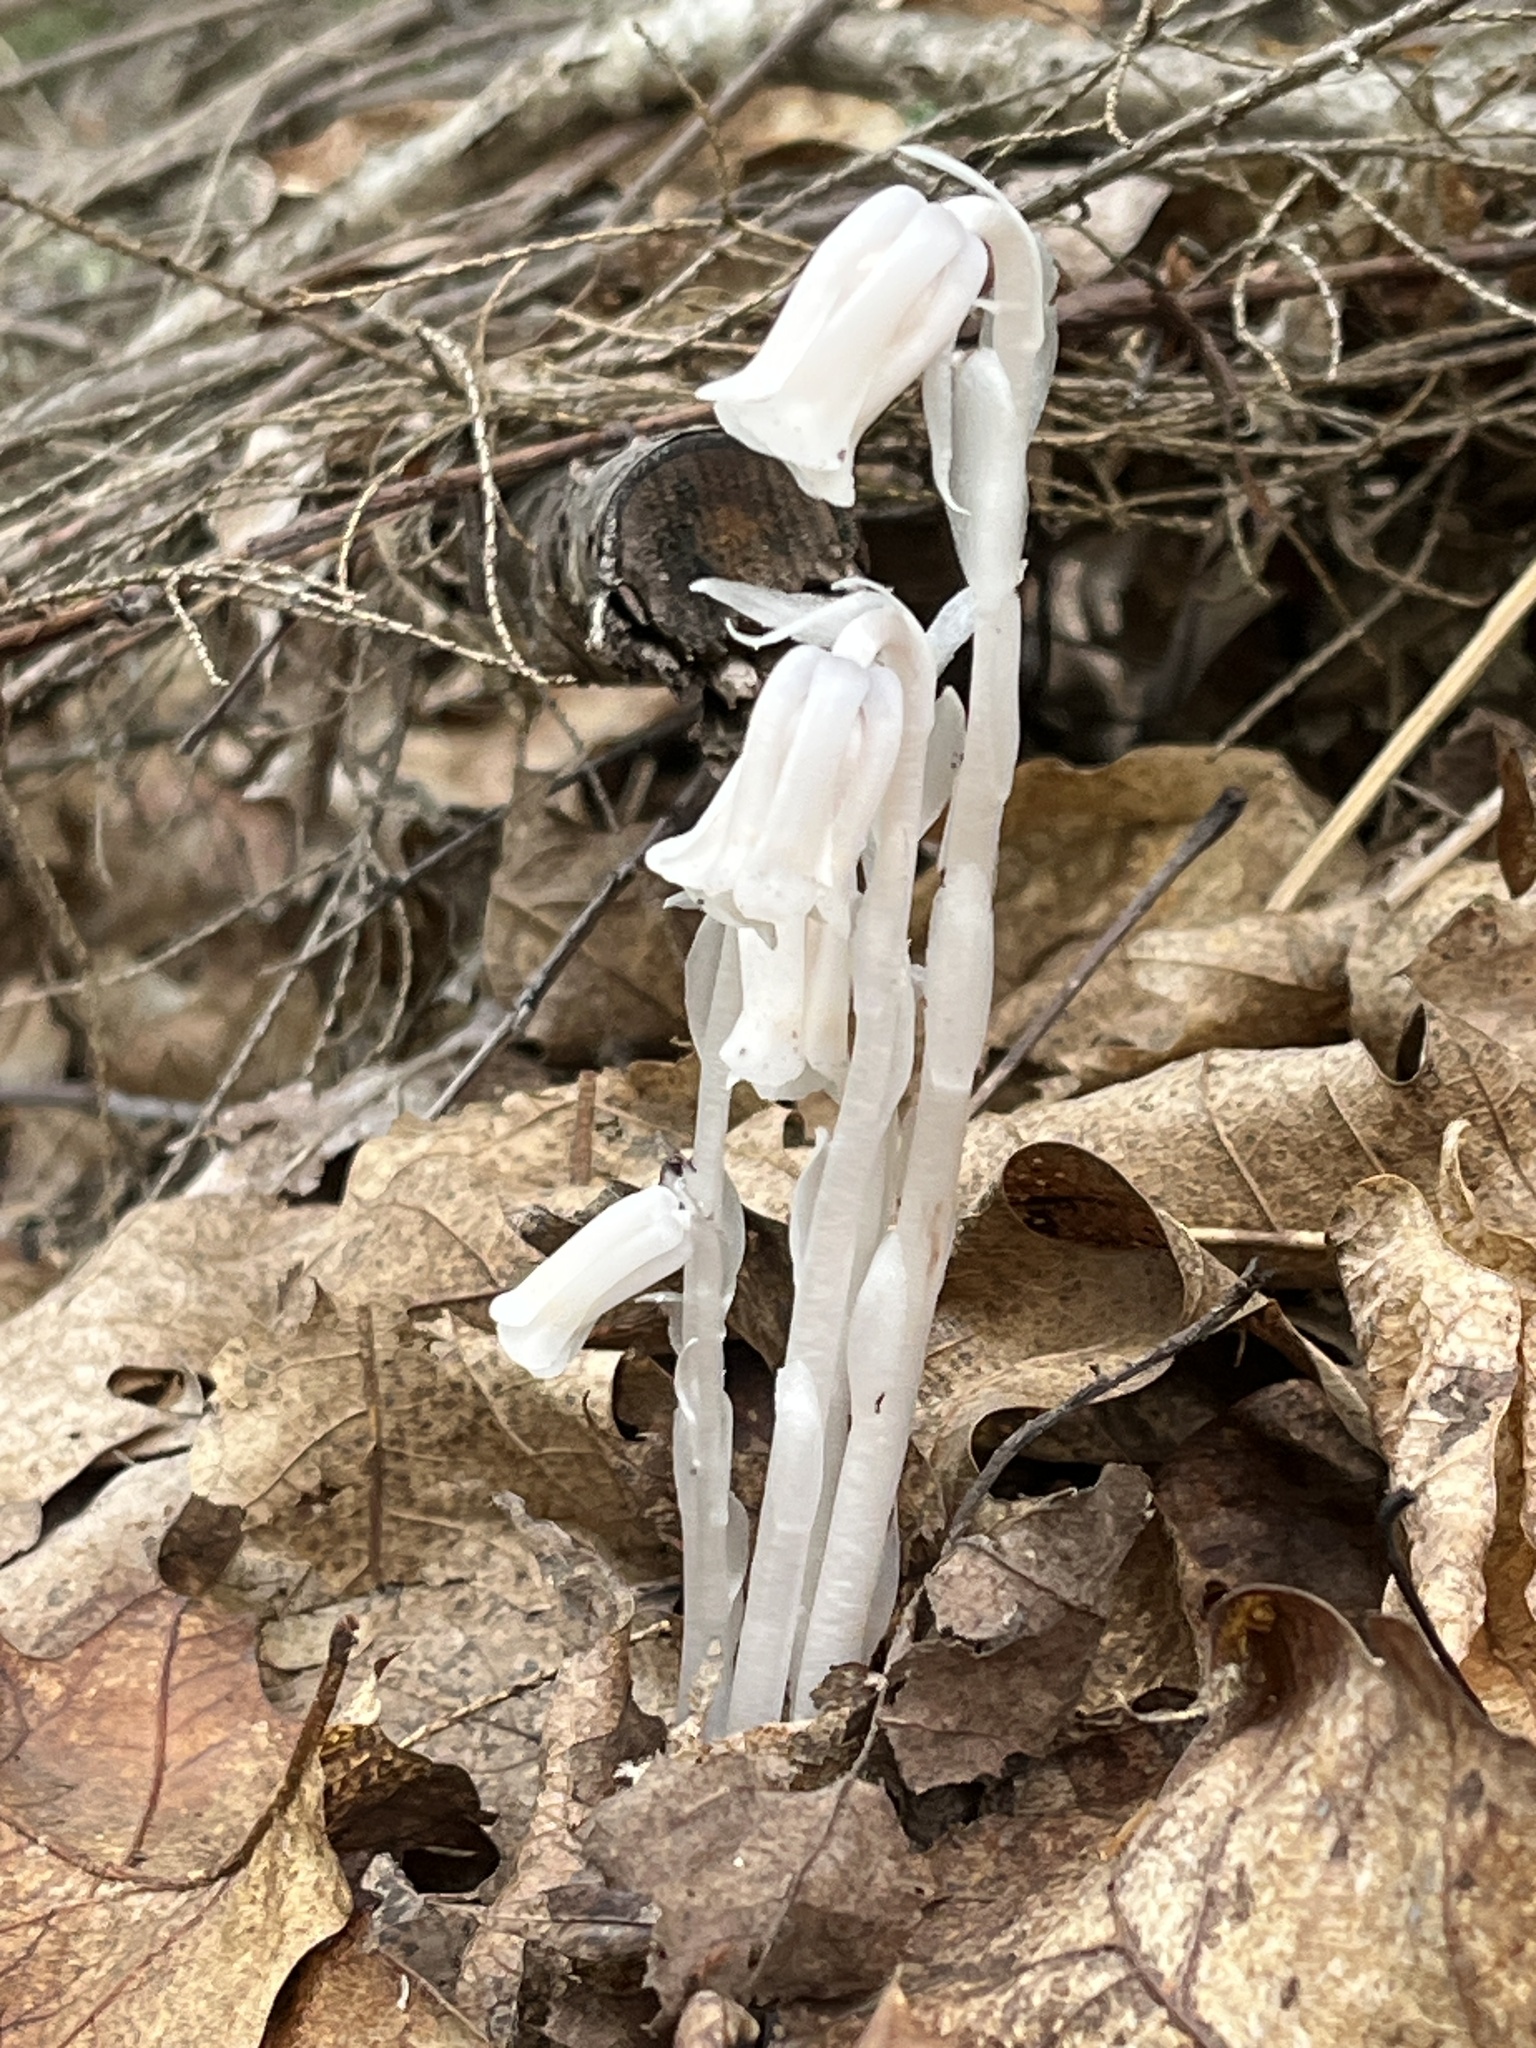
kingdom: Plantae
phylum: Tracheophyta
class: Magnoliopsida
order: Ericales
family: Ericaceae
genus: Monotropa
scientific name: Monotropa uniflora
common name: Convulsion root
